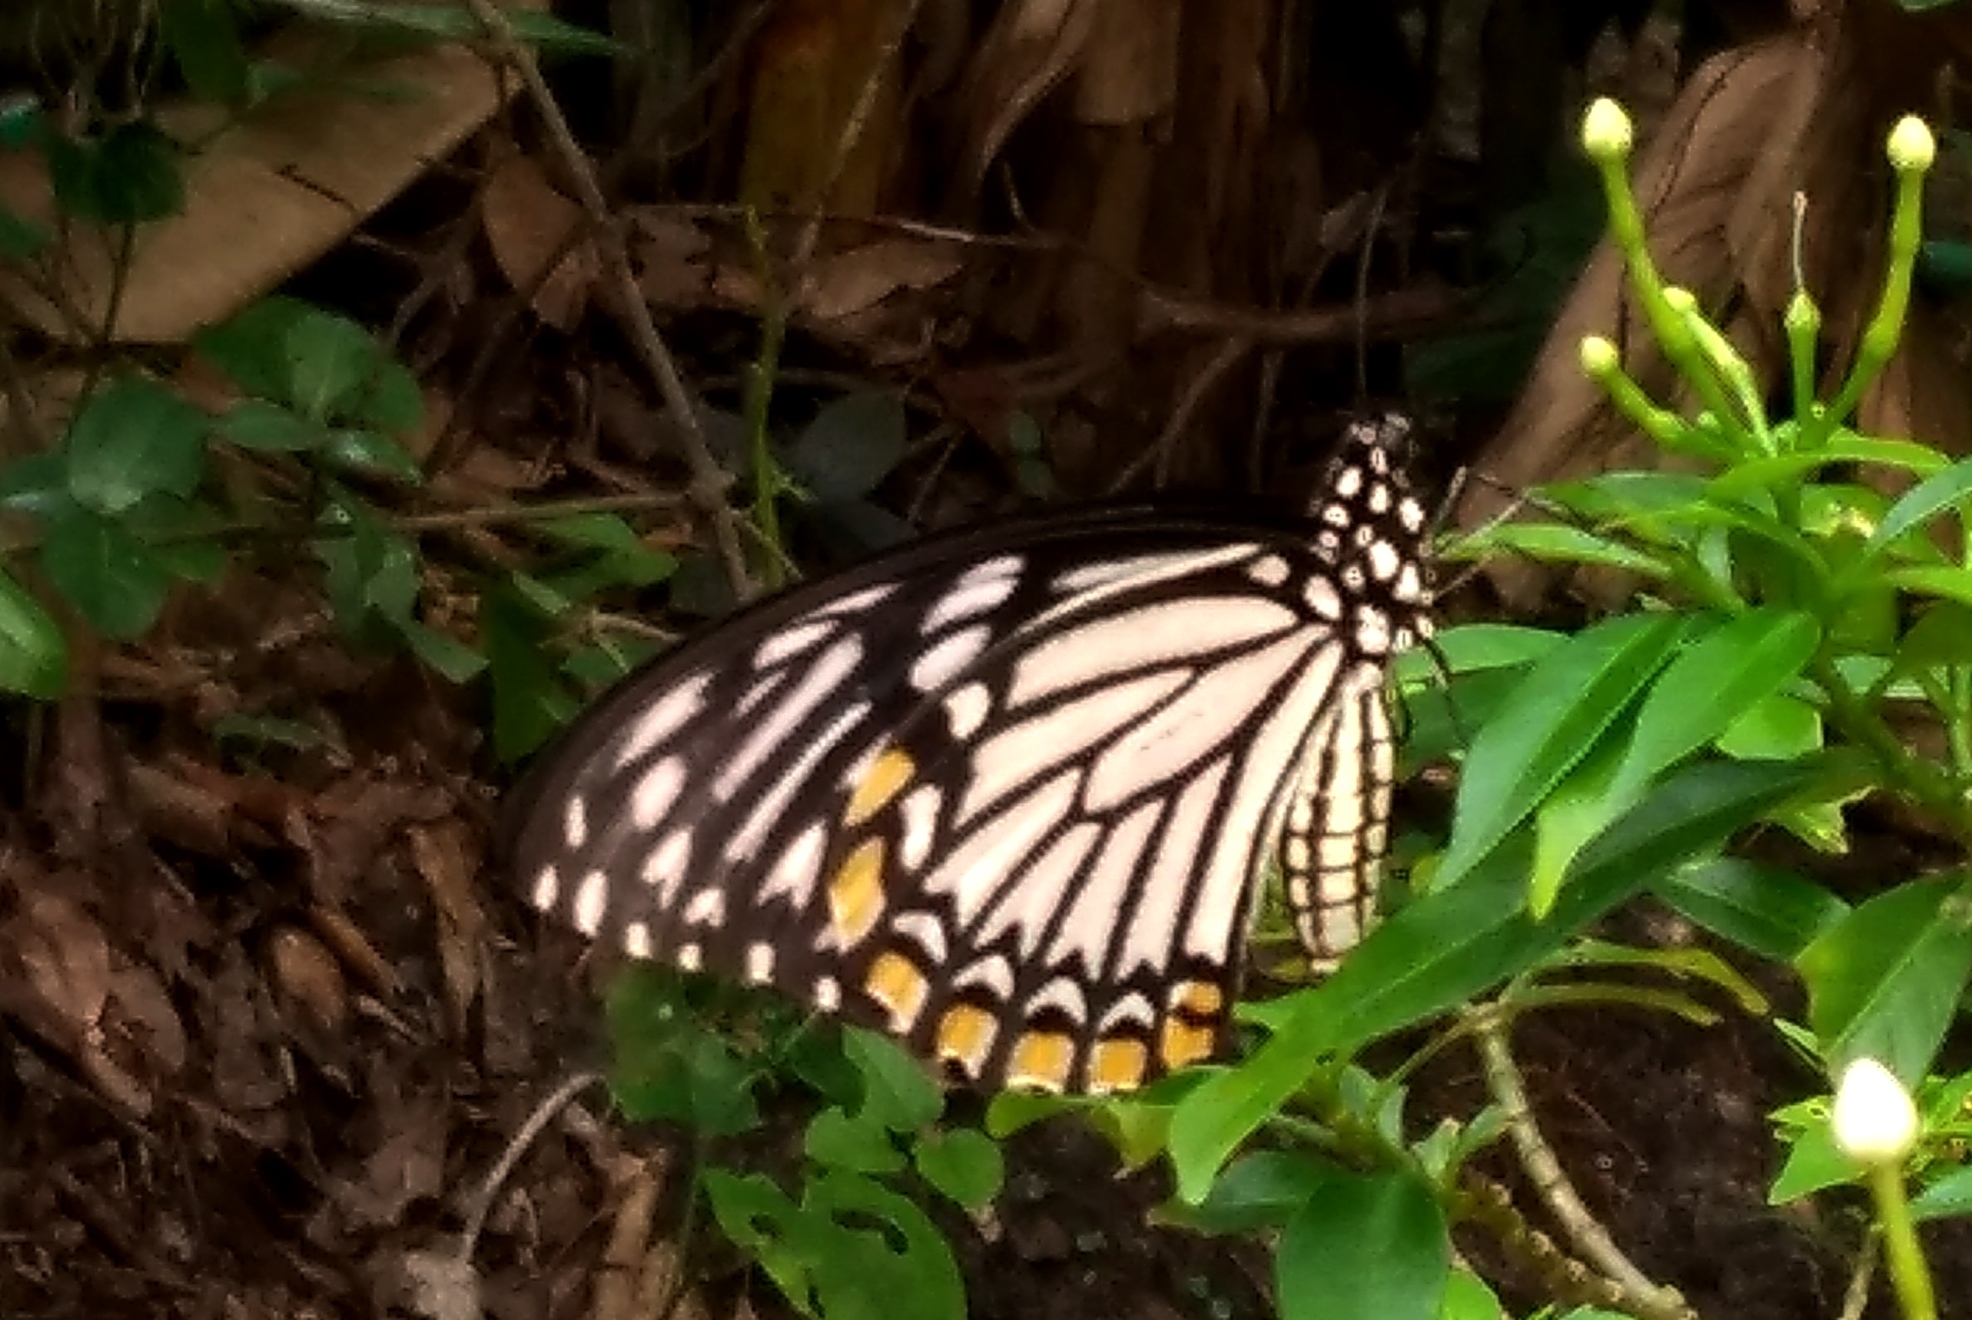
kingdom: Animalia
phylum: Arthropoda
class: Insecta
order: Lepidoptera
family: Papilionidae
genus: Chilasa
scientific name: Chilasa clytia
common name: Common mime
